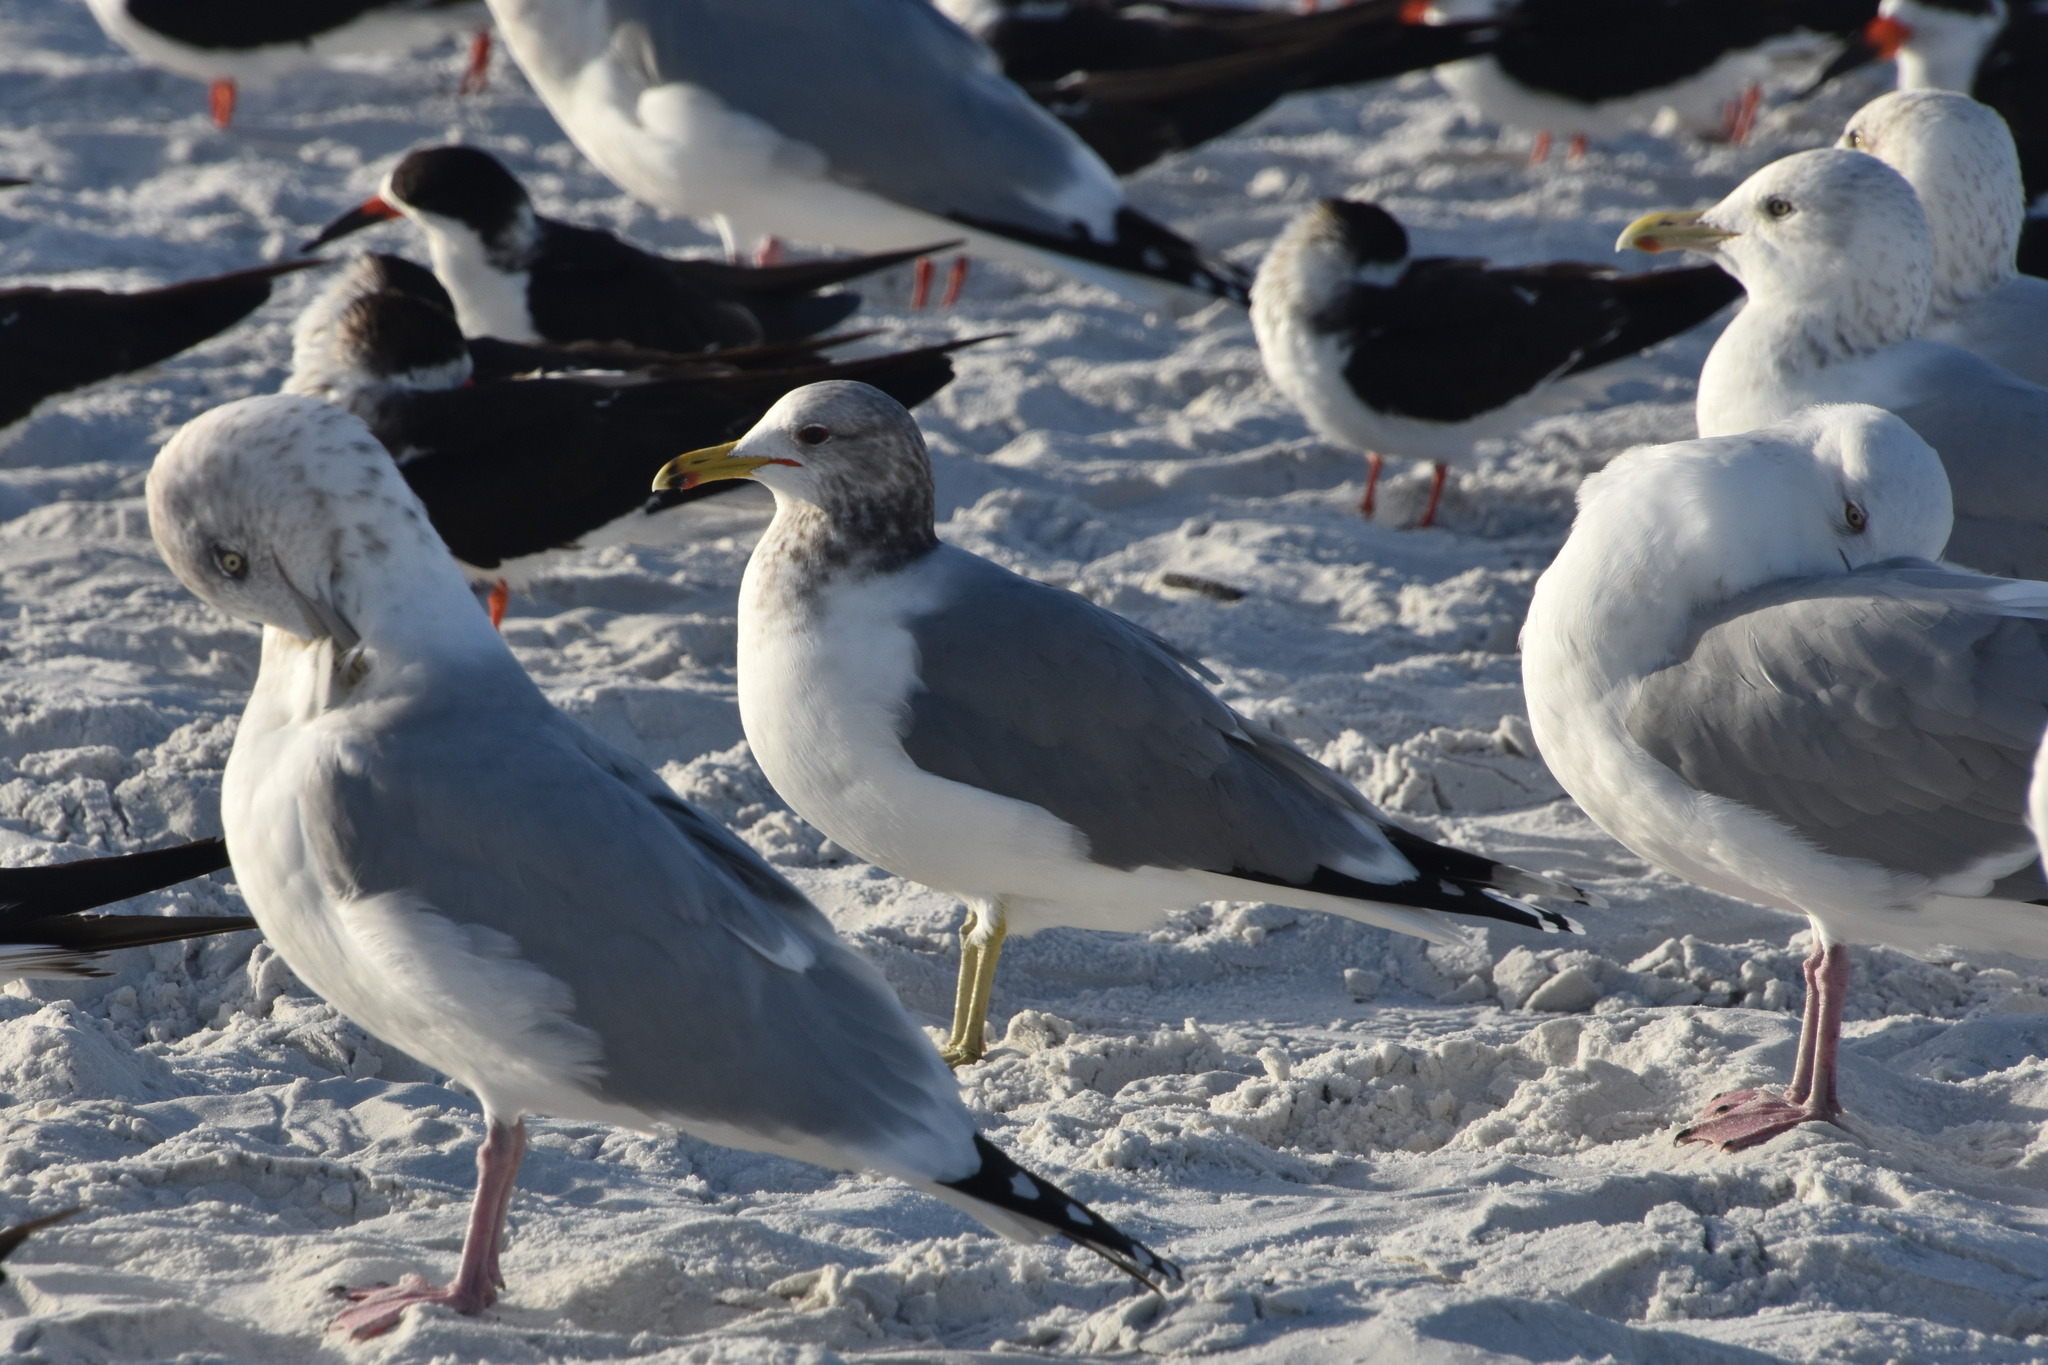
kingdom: Animalia
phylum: Chordata
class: Aves
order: Charadriiformes
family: Laridae
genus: Larus
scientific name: Larus californicus
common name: California gull
